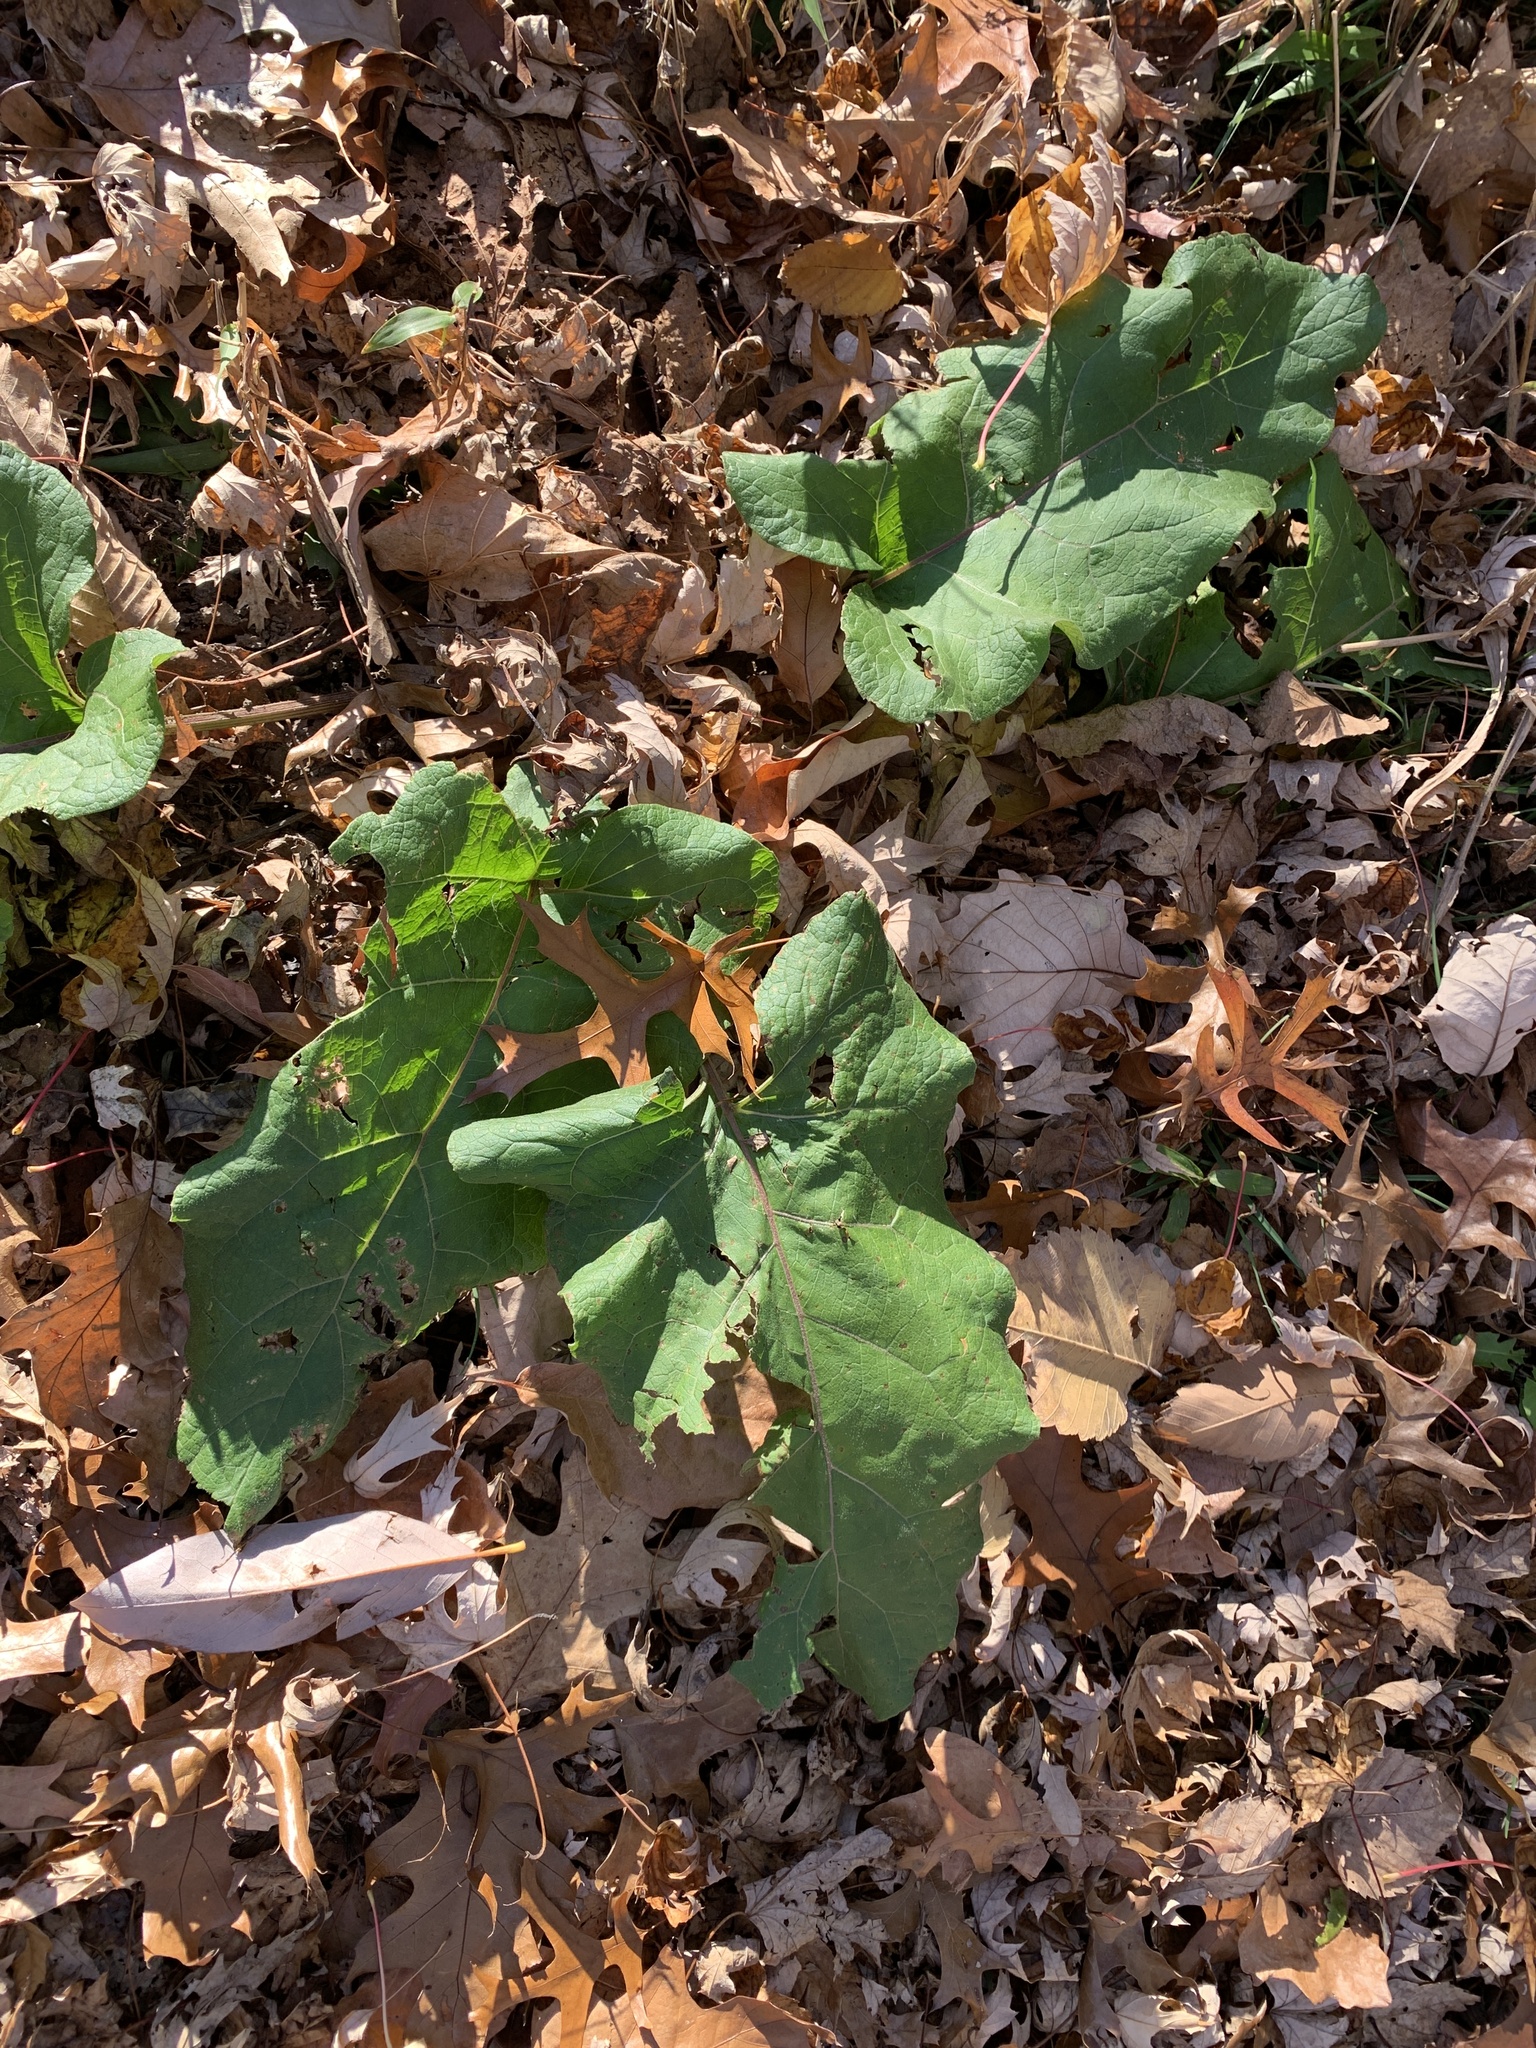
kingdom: Plantae
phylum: Tracheophyta
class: Magnoliopsida
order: Asterales
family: Asteraceae
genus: Arctium
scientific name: Arctium
